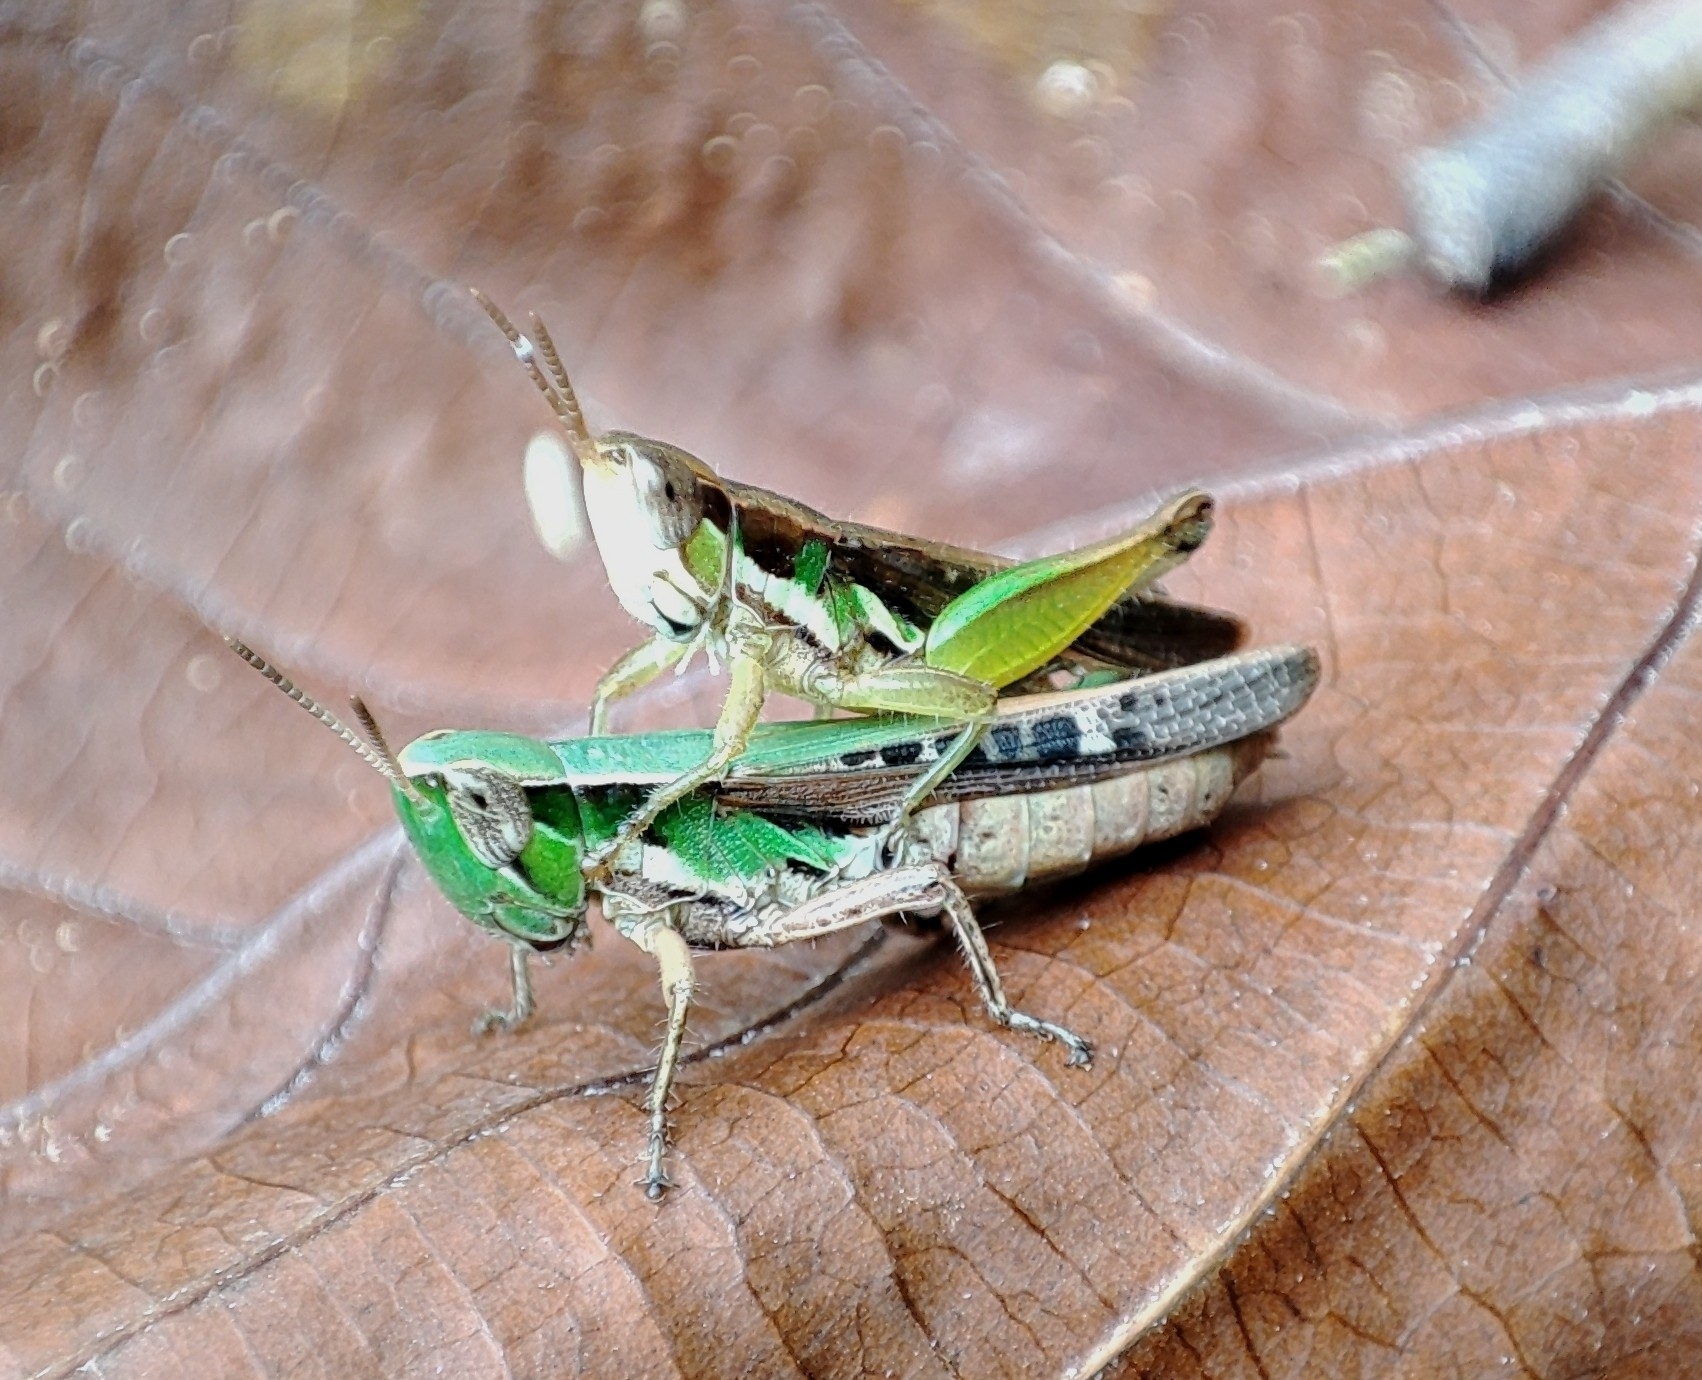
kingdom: Animalia
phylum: Arthropoda
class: Insecta
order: Orthoptera
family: Acrididae
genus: Spathosternum
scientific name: Spathosternum prasiniferum
